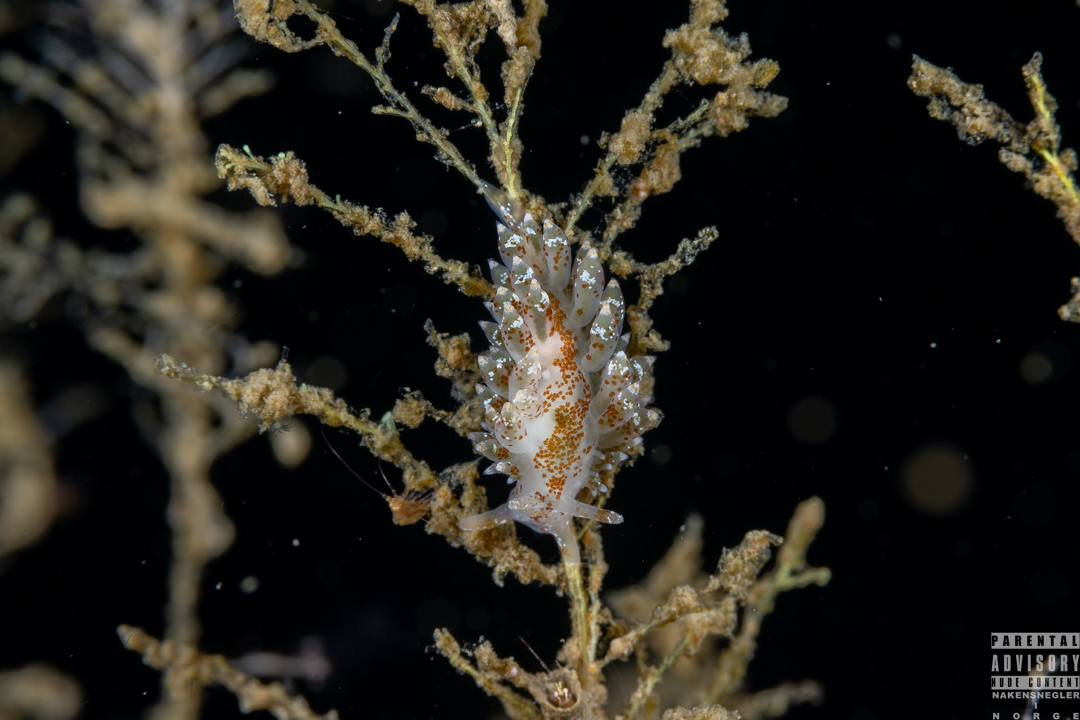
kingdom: Animalia
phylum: Mollusca
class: Gastropoda
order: Nudibranchia
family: Eubranchidae
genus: Amphorina
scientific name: Amphorina pallida
